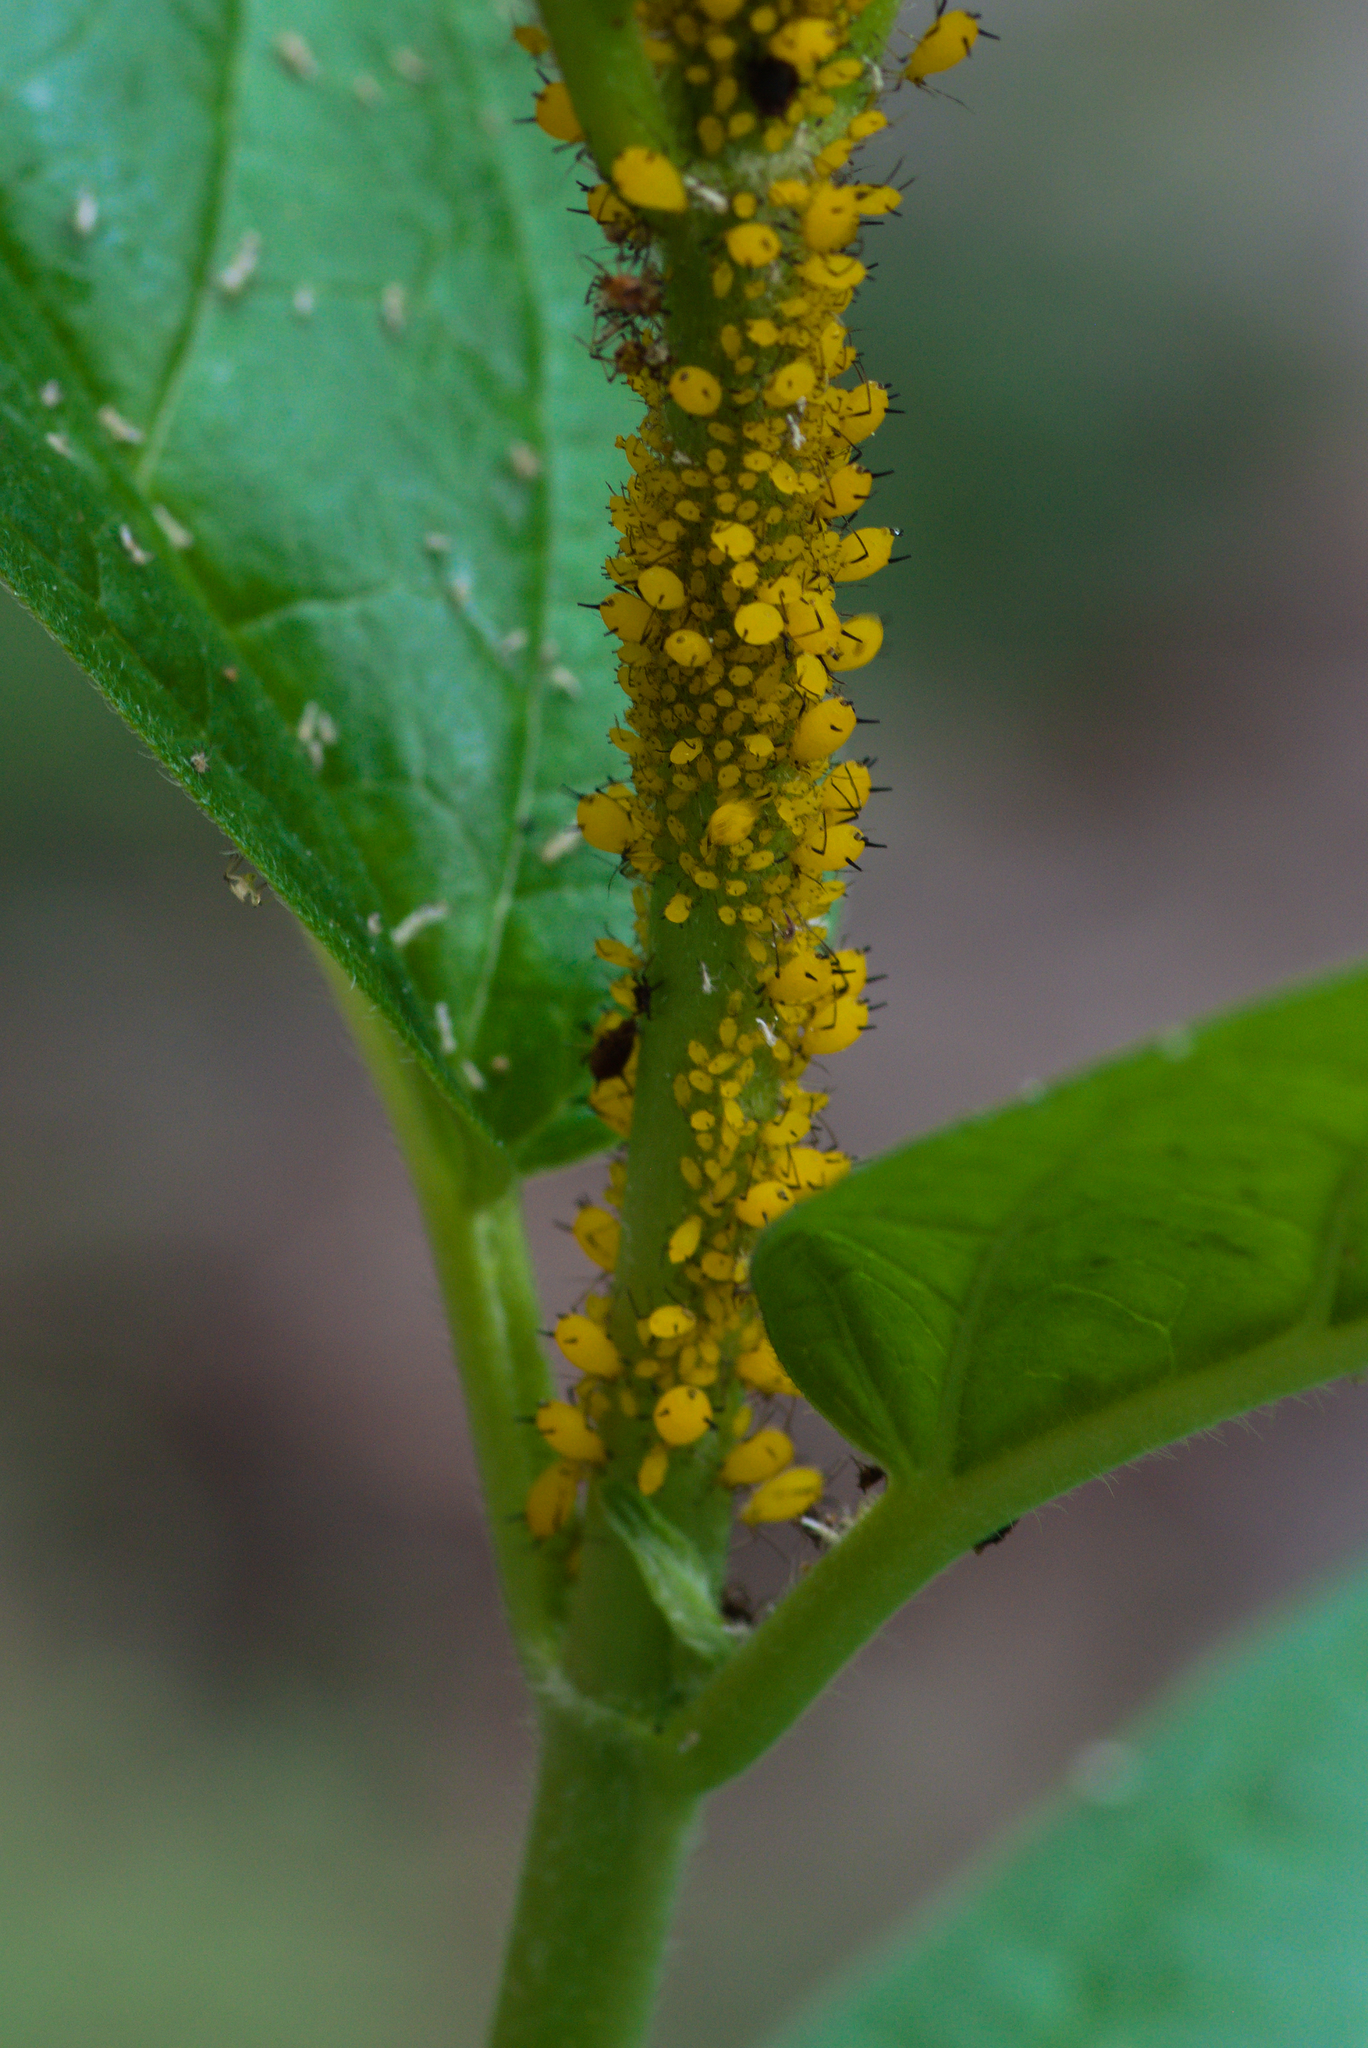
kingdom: Animalia
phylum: Arthropoda
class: Insecta
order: Hemiptera
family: Aphididae
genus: Aphis
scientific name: Aphis nerii
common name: Oleander aphid
